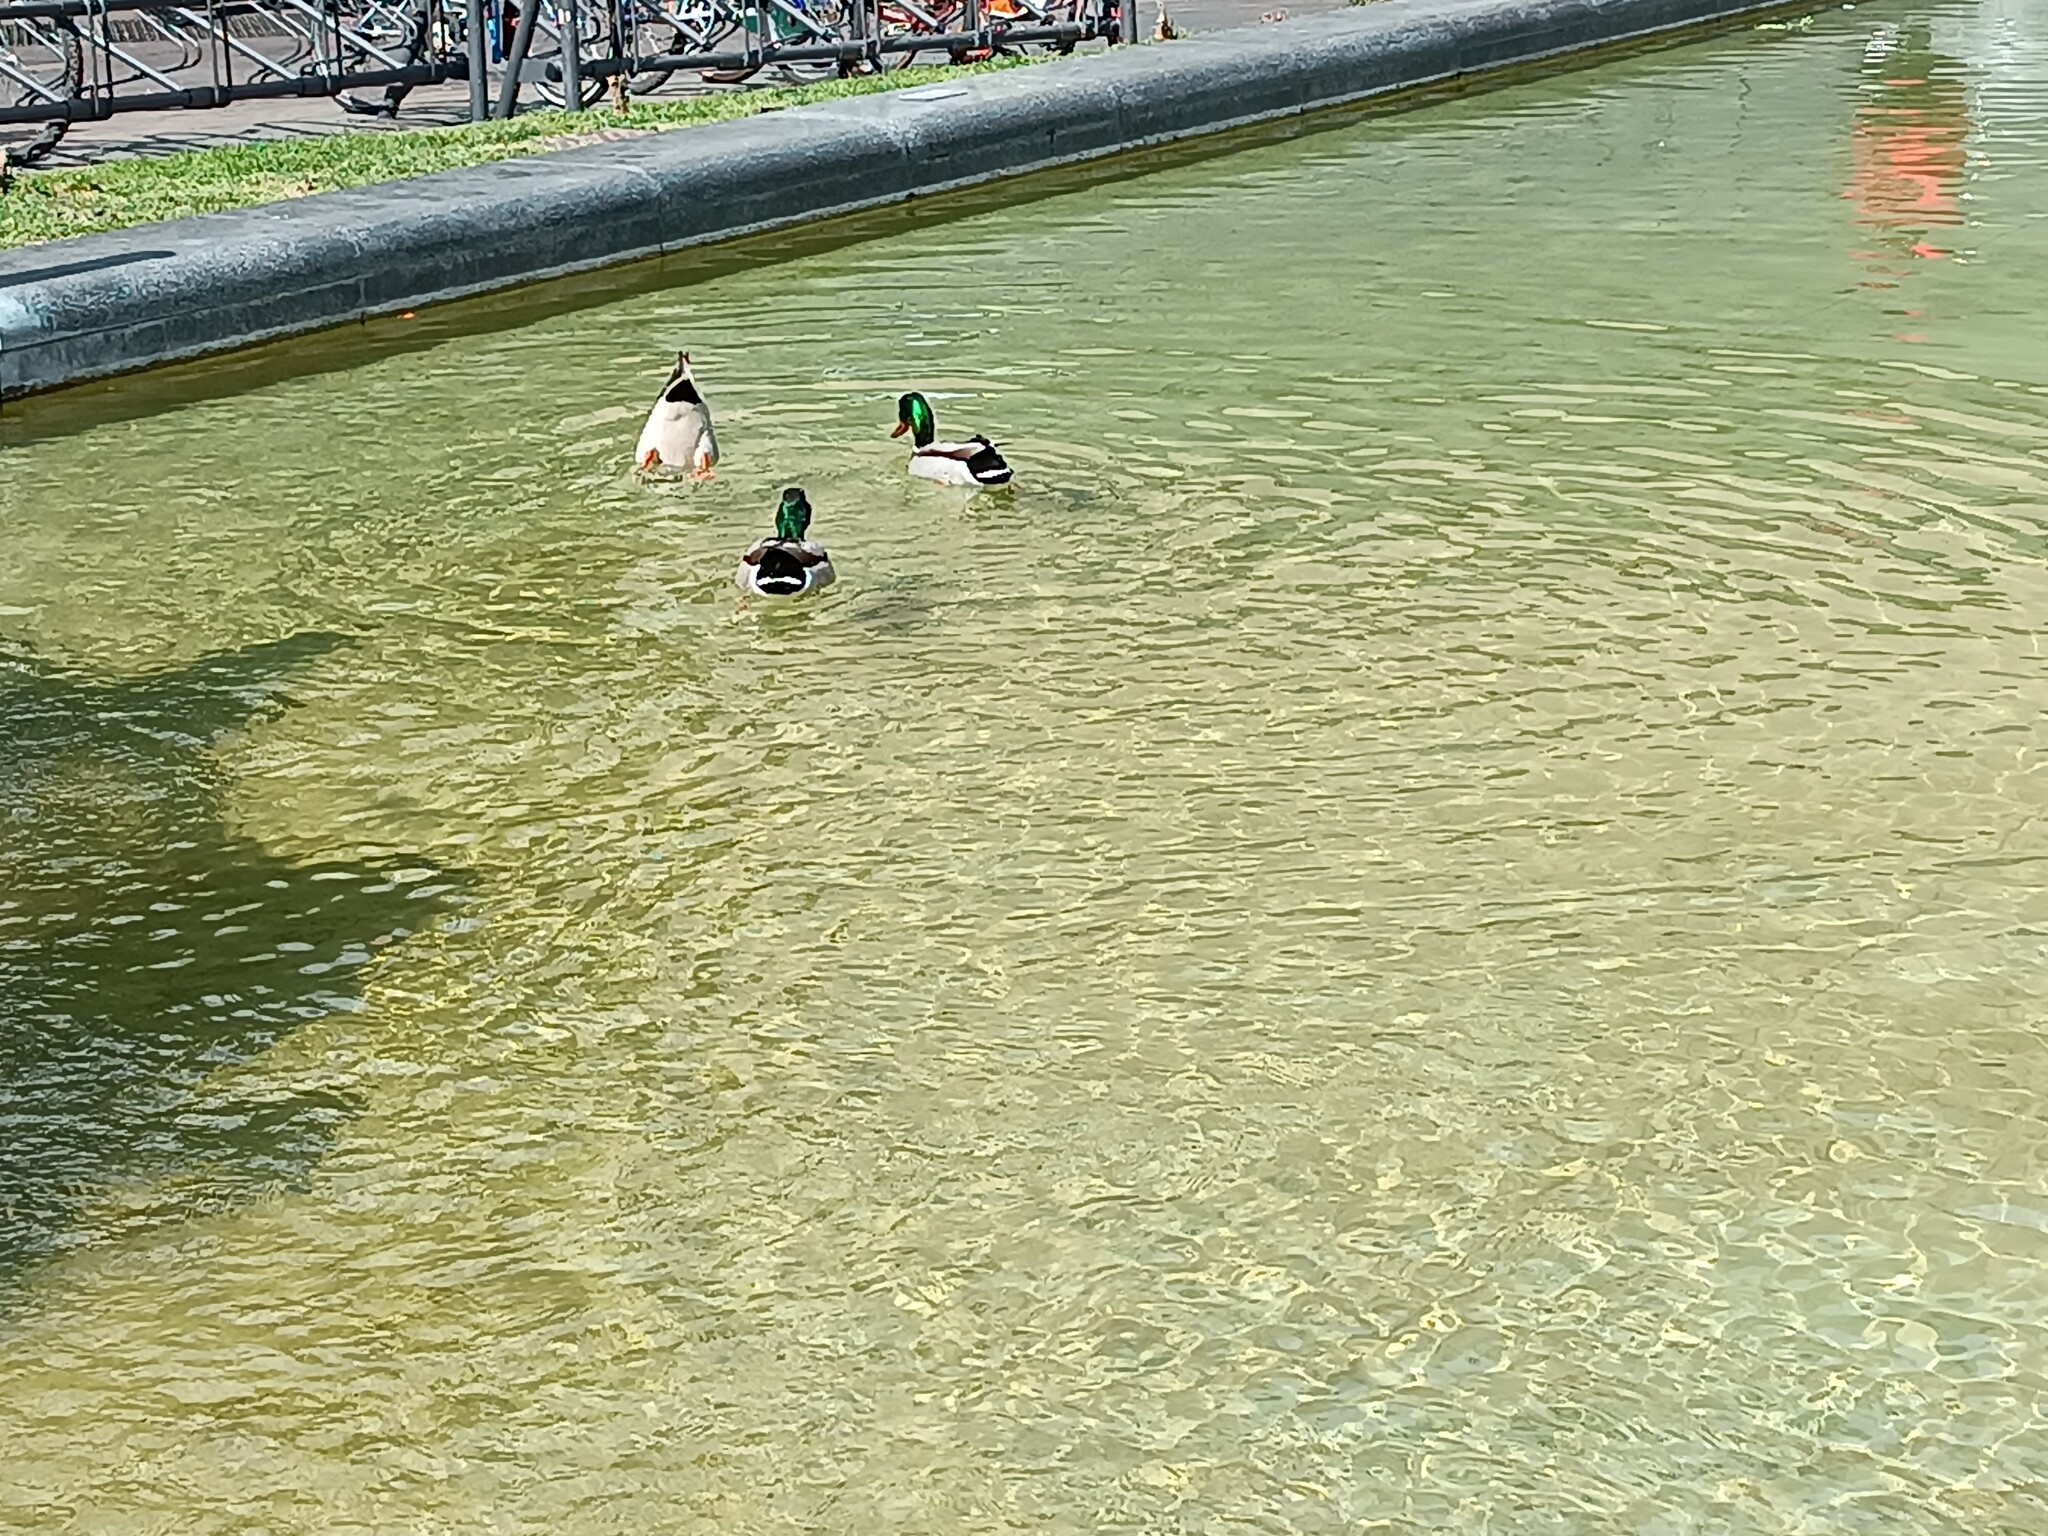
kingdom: Animalia
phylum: Chordata
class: Aves
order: Anseriformes
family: Anatidae
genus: Anas
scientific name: Anas platyrhynchos
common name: Mallard
